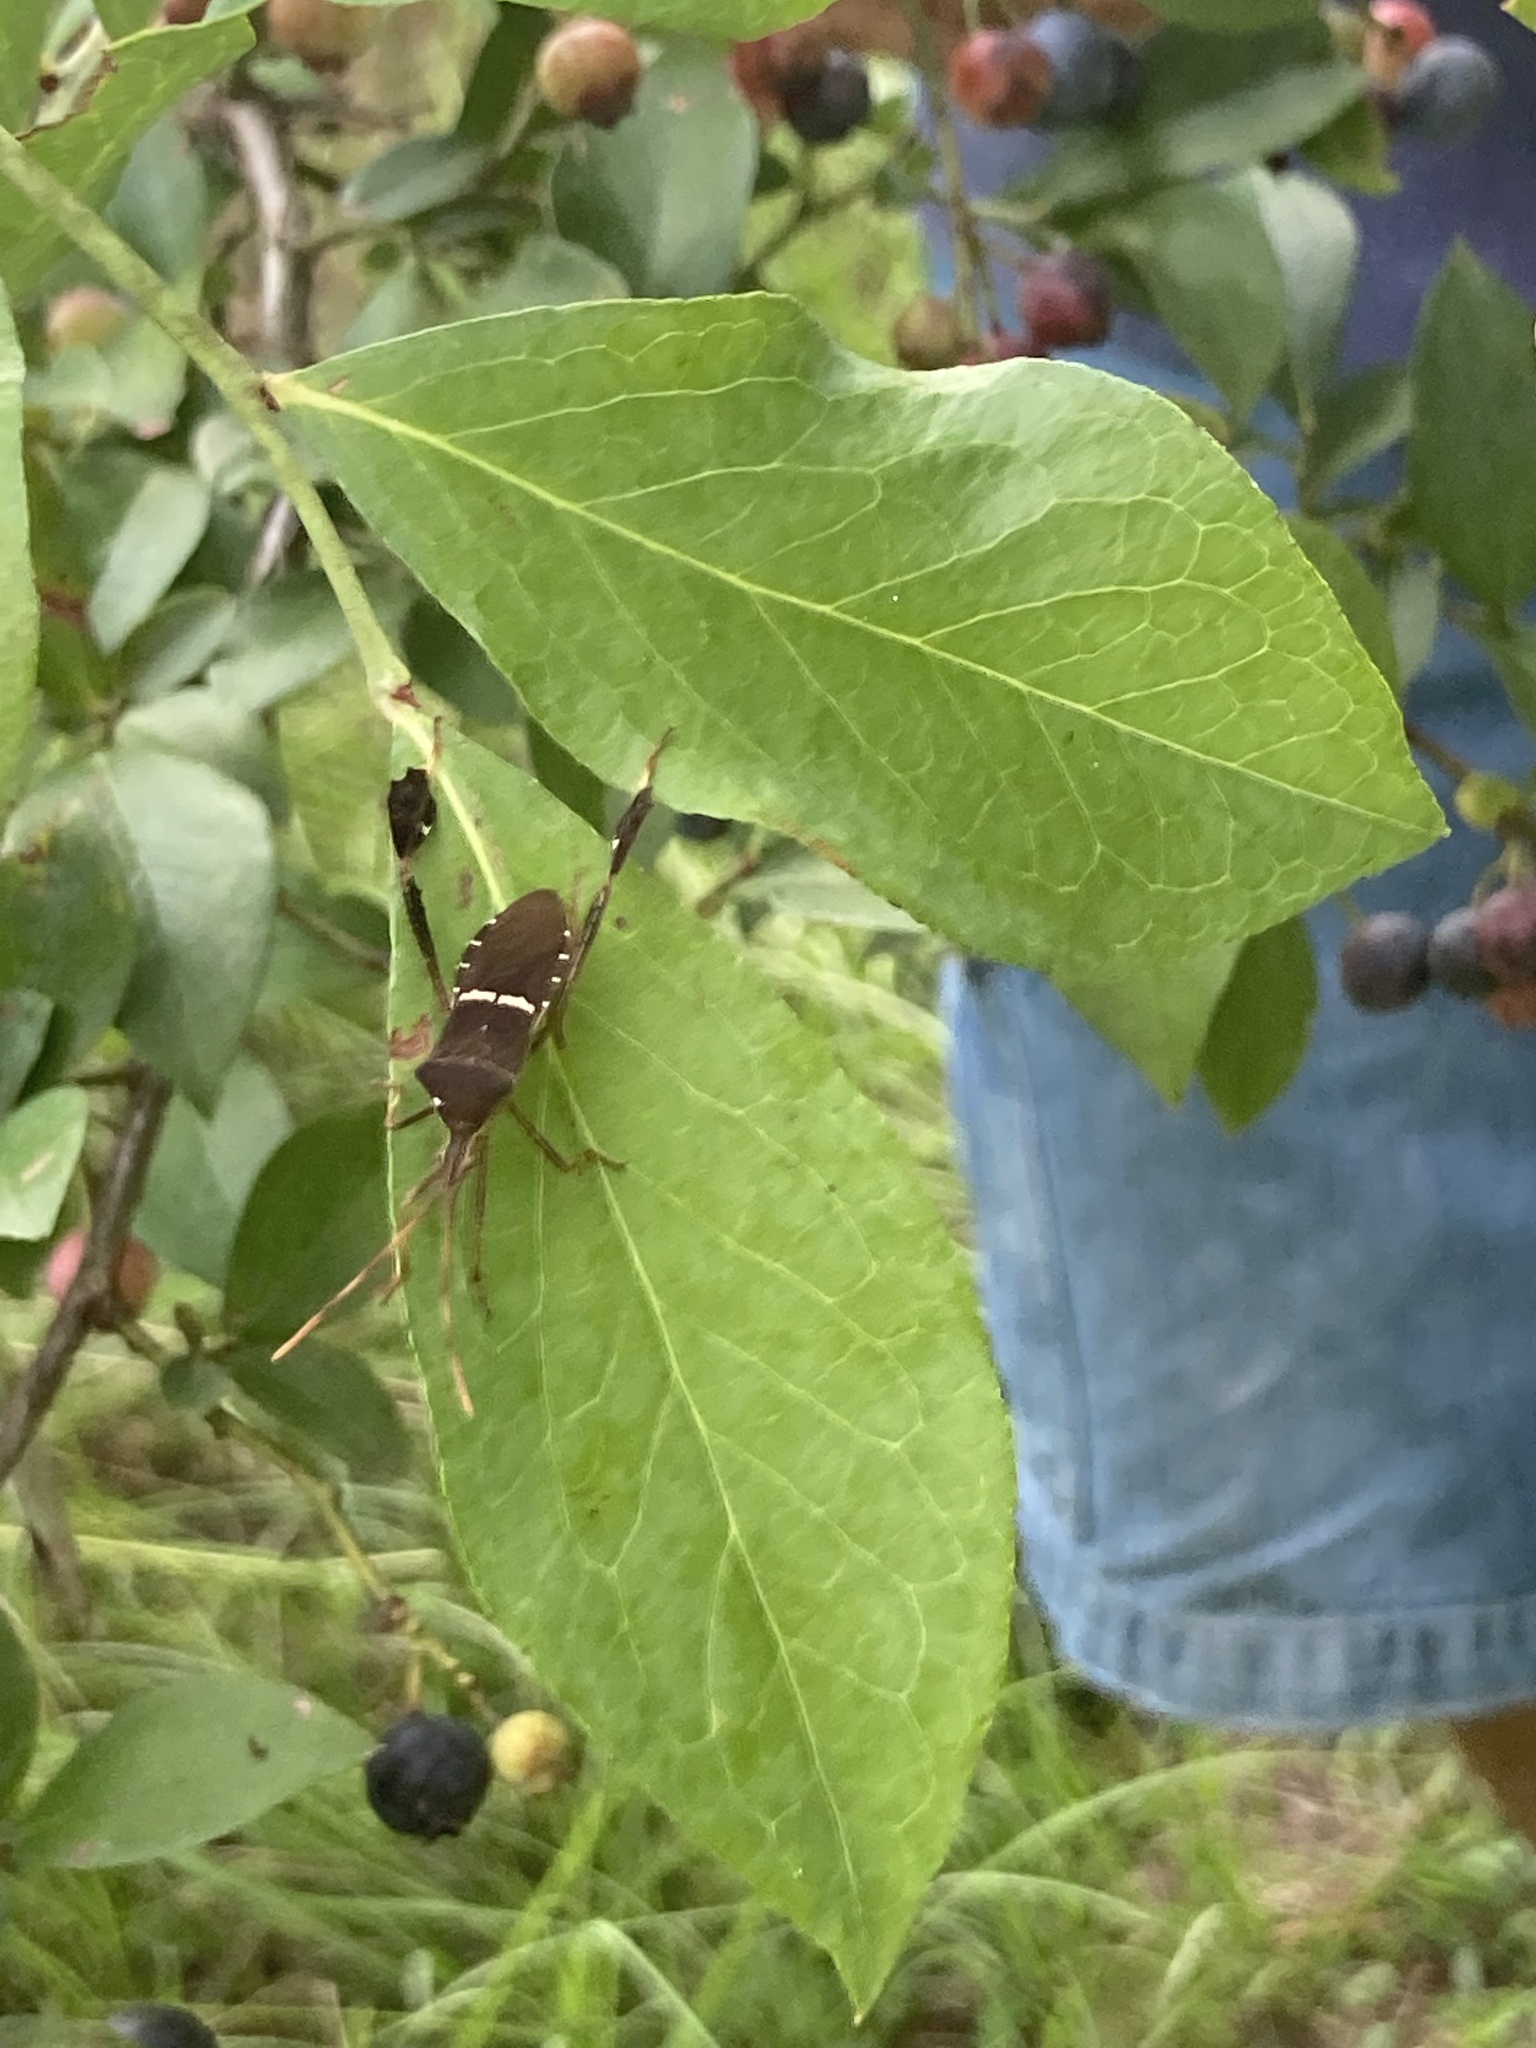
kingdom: Animalia
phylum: Arthropoda
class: Insecta
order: Hemiptera
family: Coreidae
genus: Leptoglossus
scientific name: Leptoglossus phyllopus
